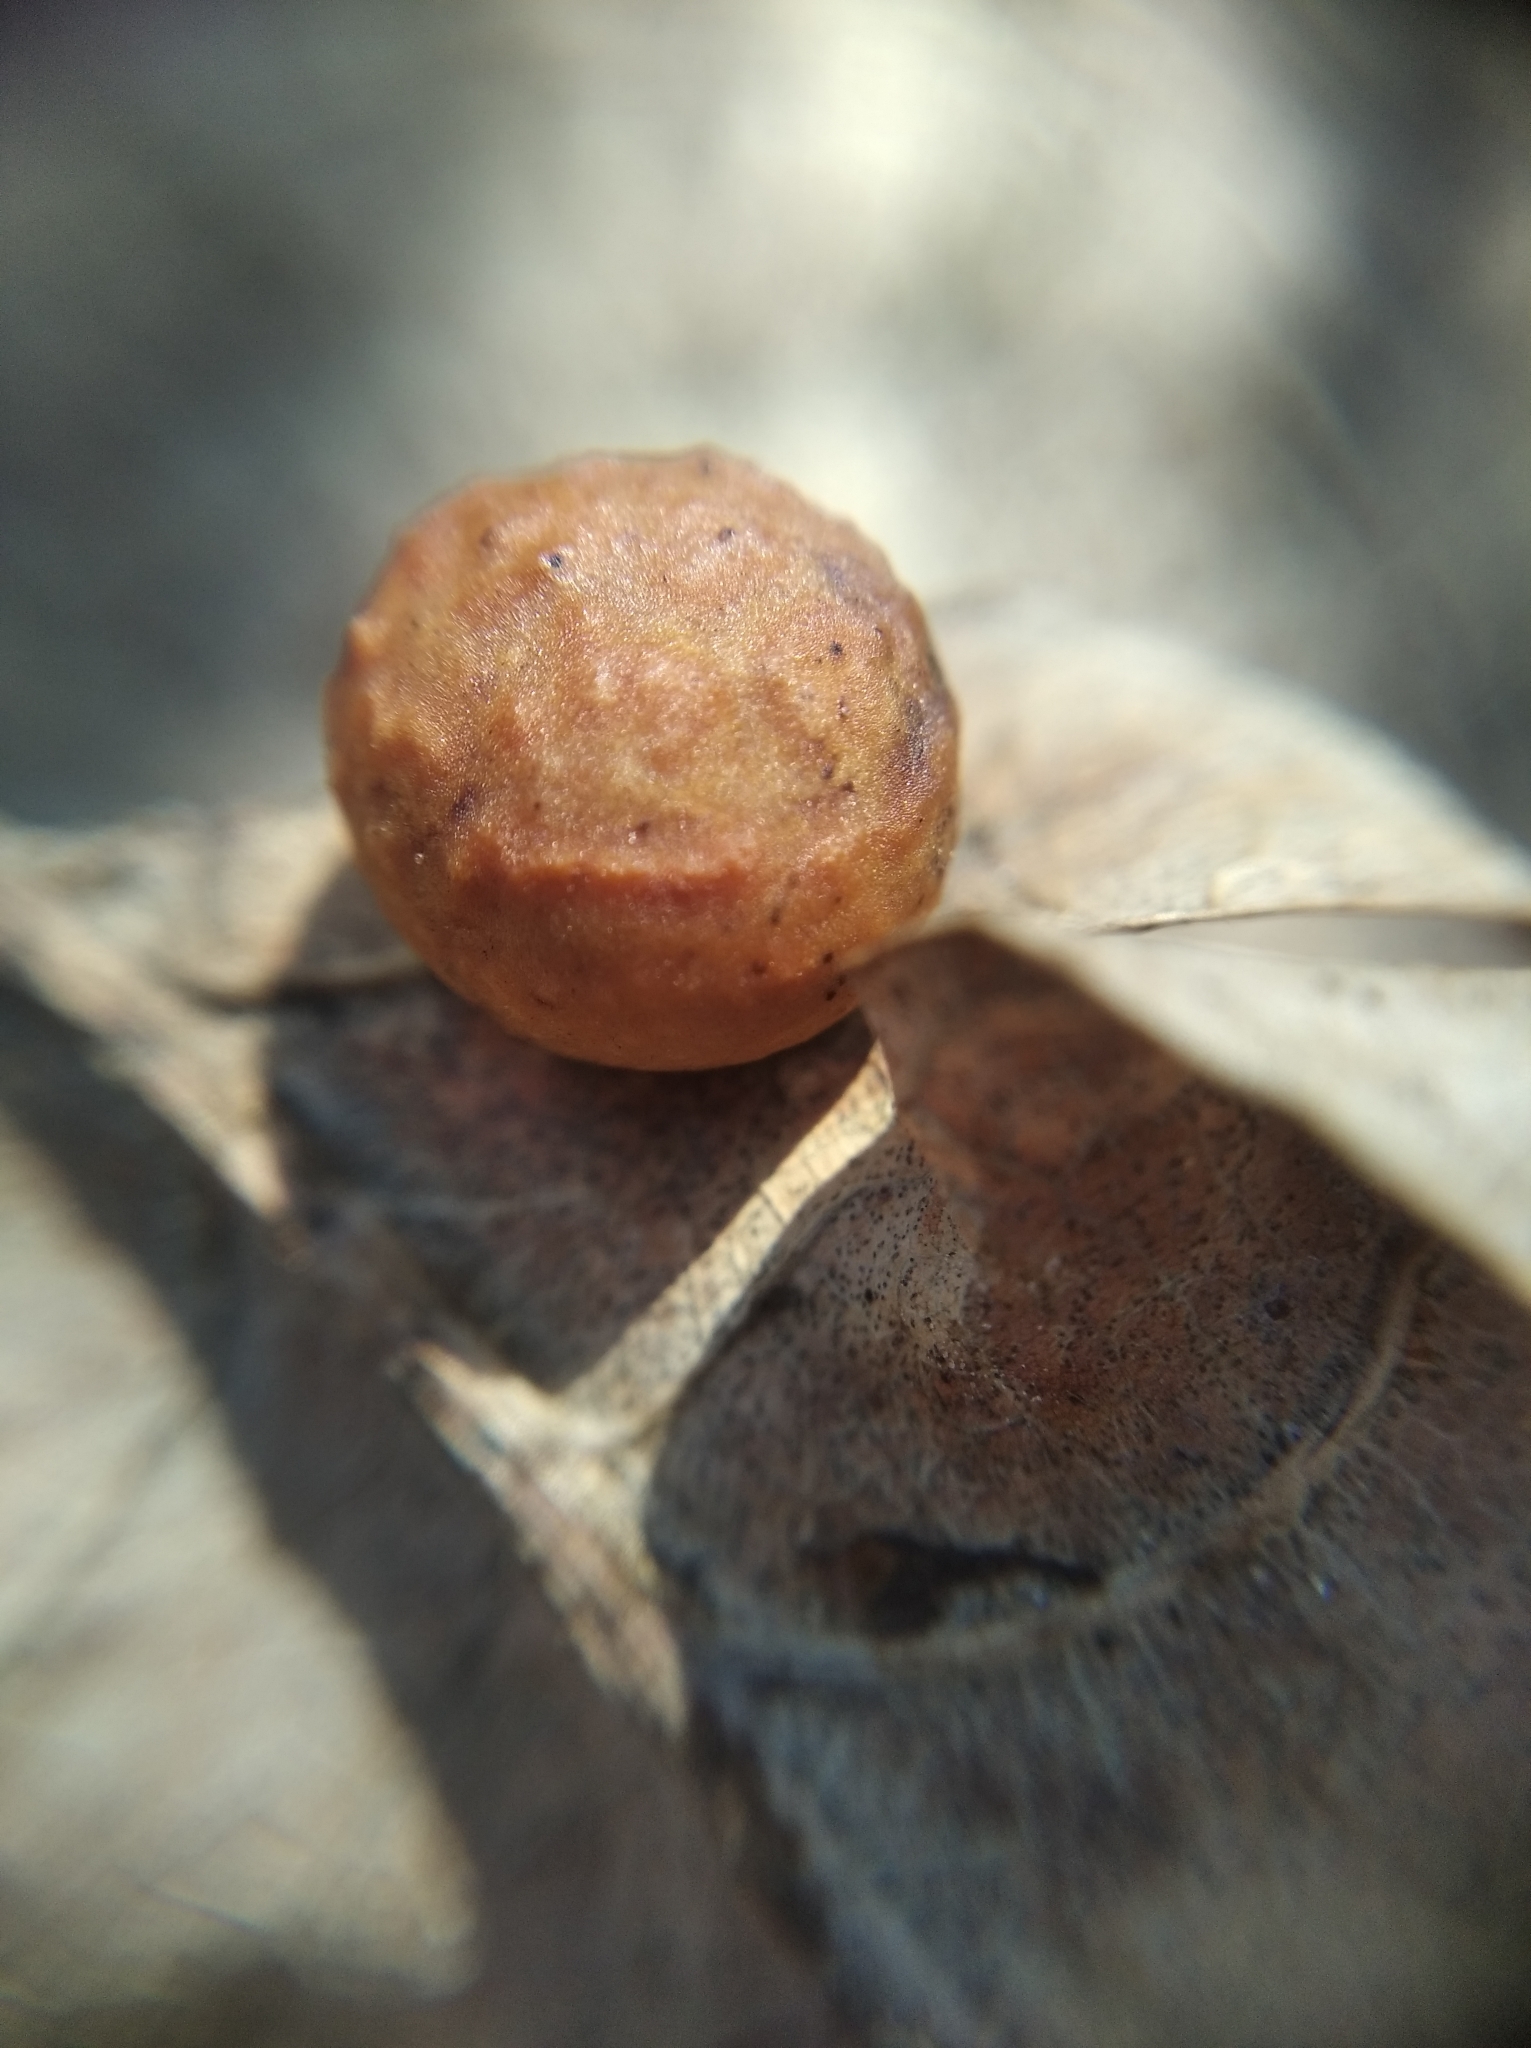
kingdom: Animalia
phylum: Arthropoda
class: Insecta
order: Hymenoptera
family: Cynipidae
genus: Cynips
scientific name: Cynips longiventris
